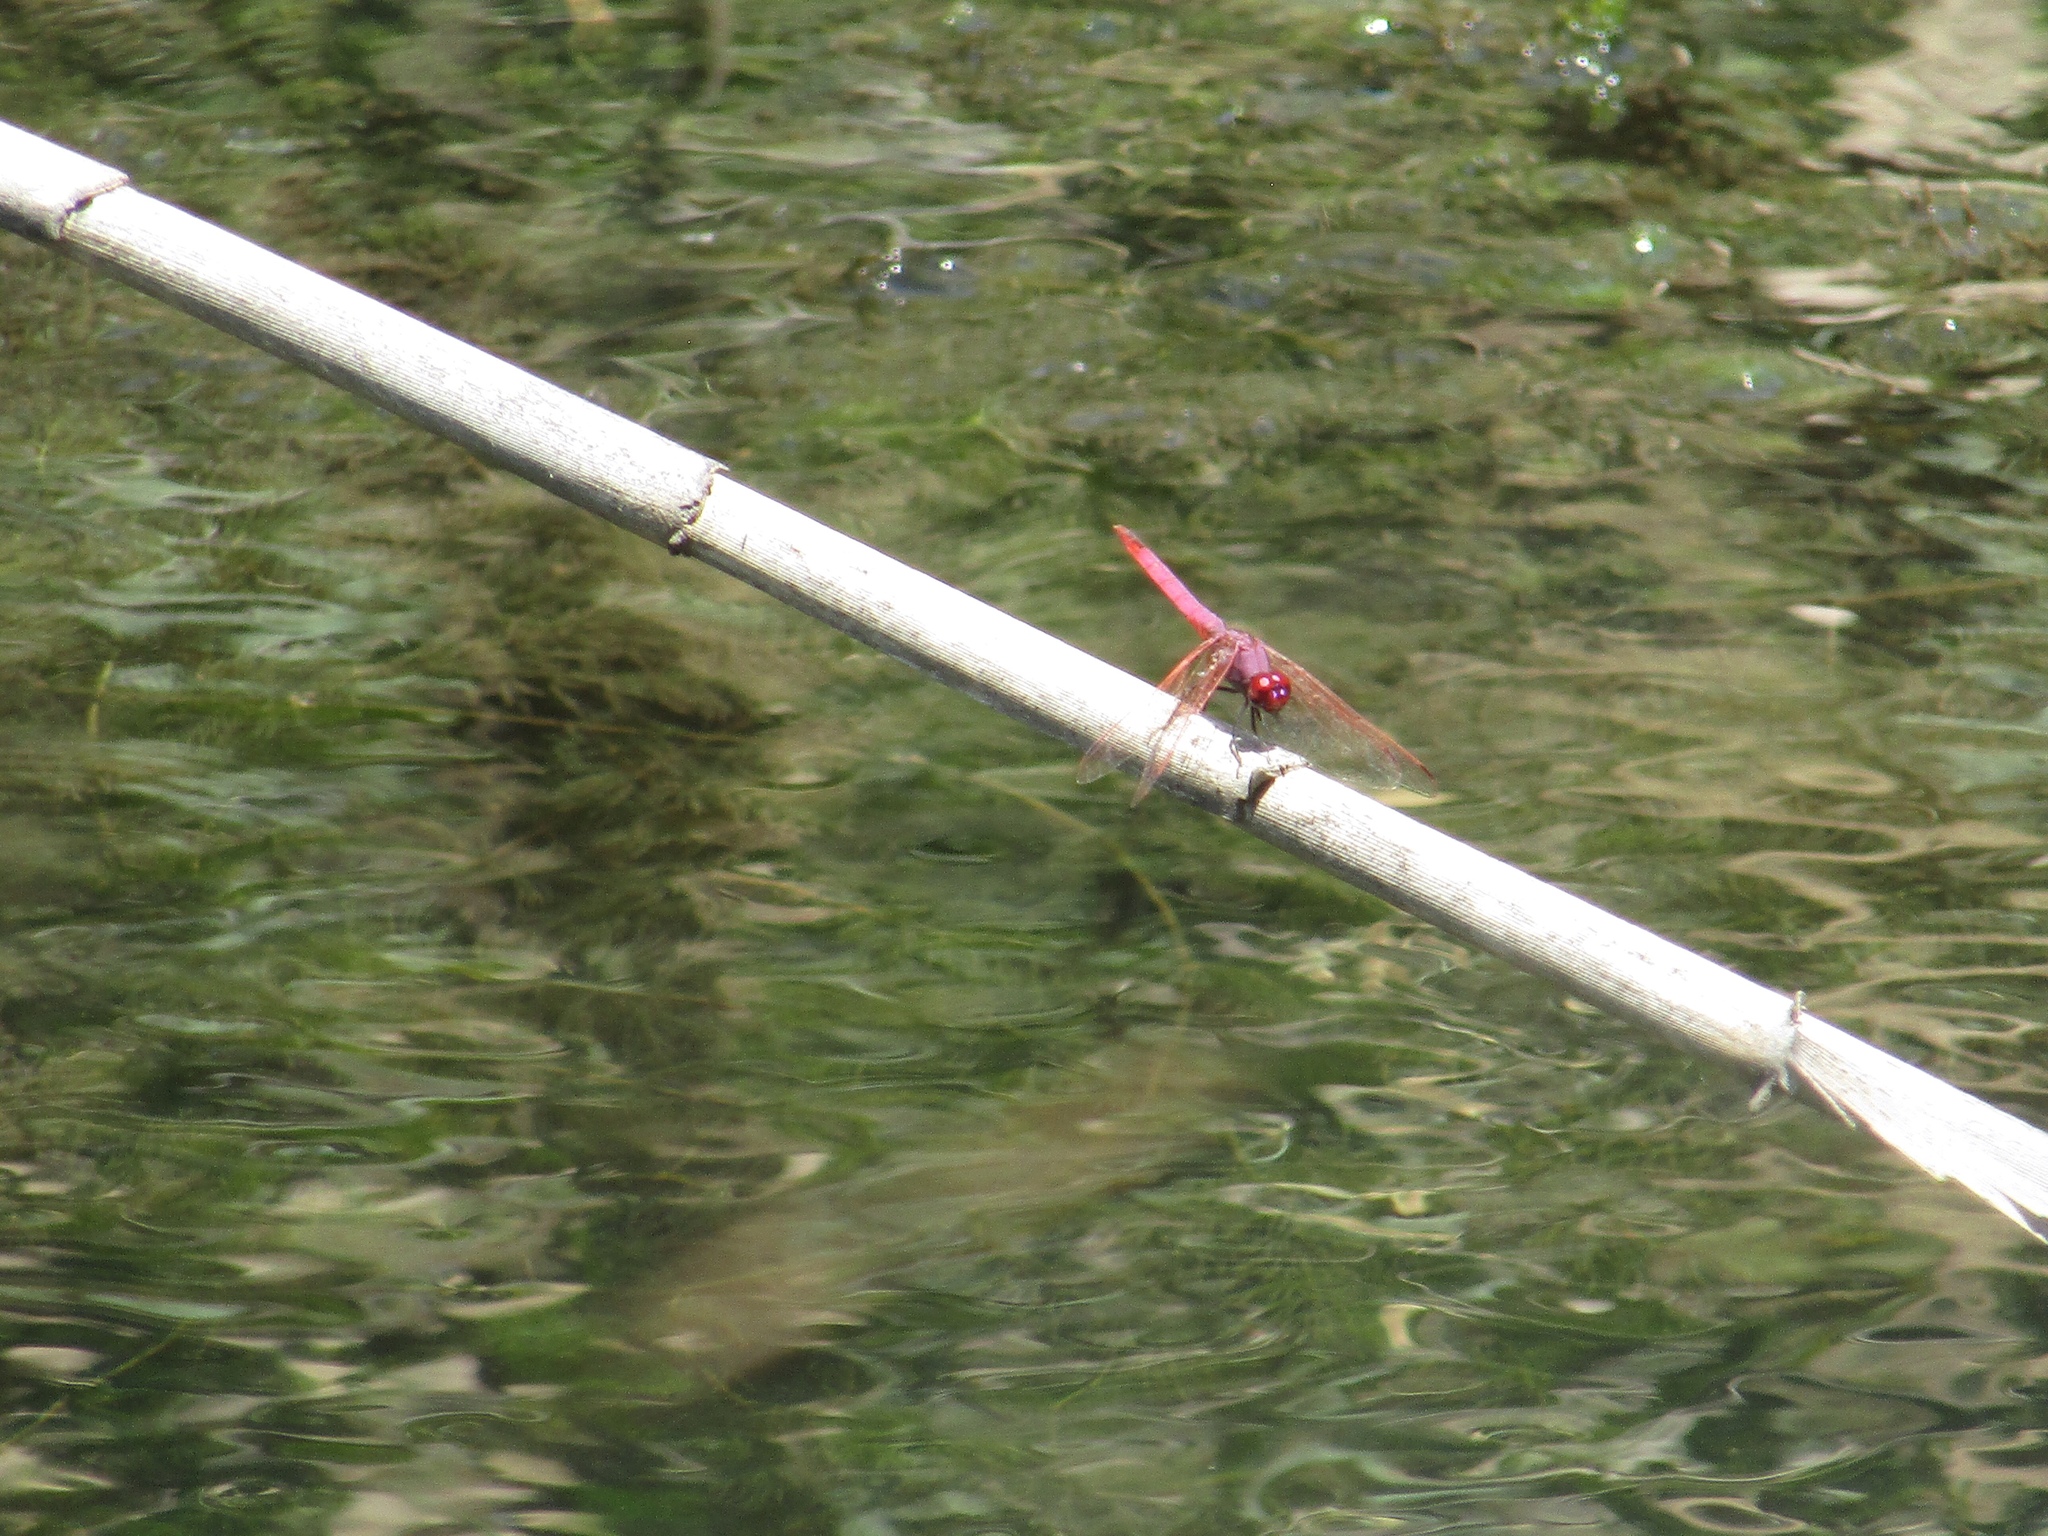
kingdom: Animalia
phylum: Arthropoda
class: Insecta
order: Odonata
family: Libellulidae
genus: Trithemis
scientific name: Trithemis annulata
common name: Violet dropwing
